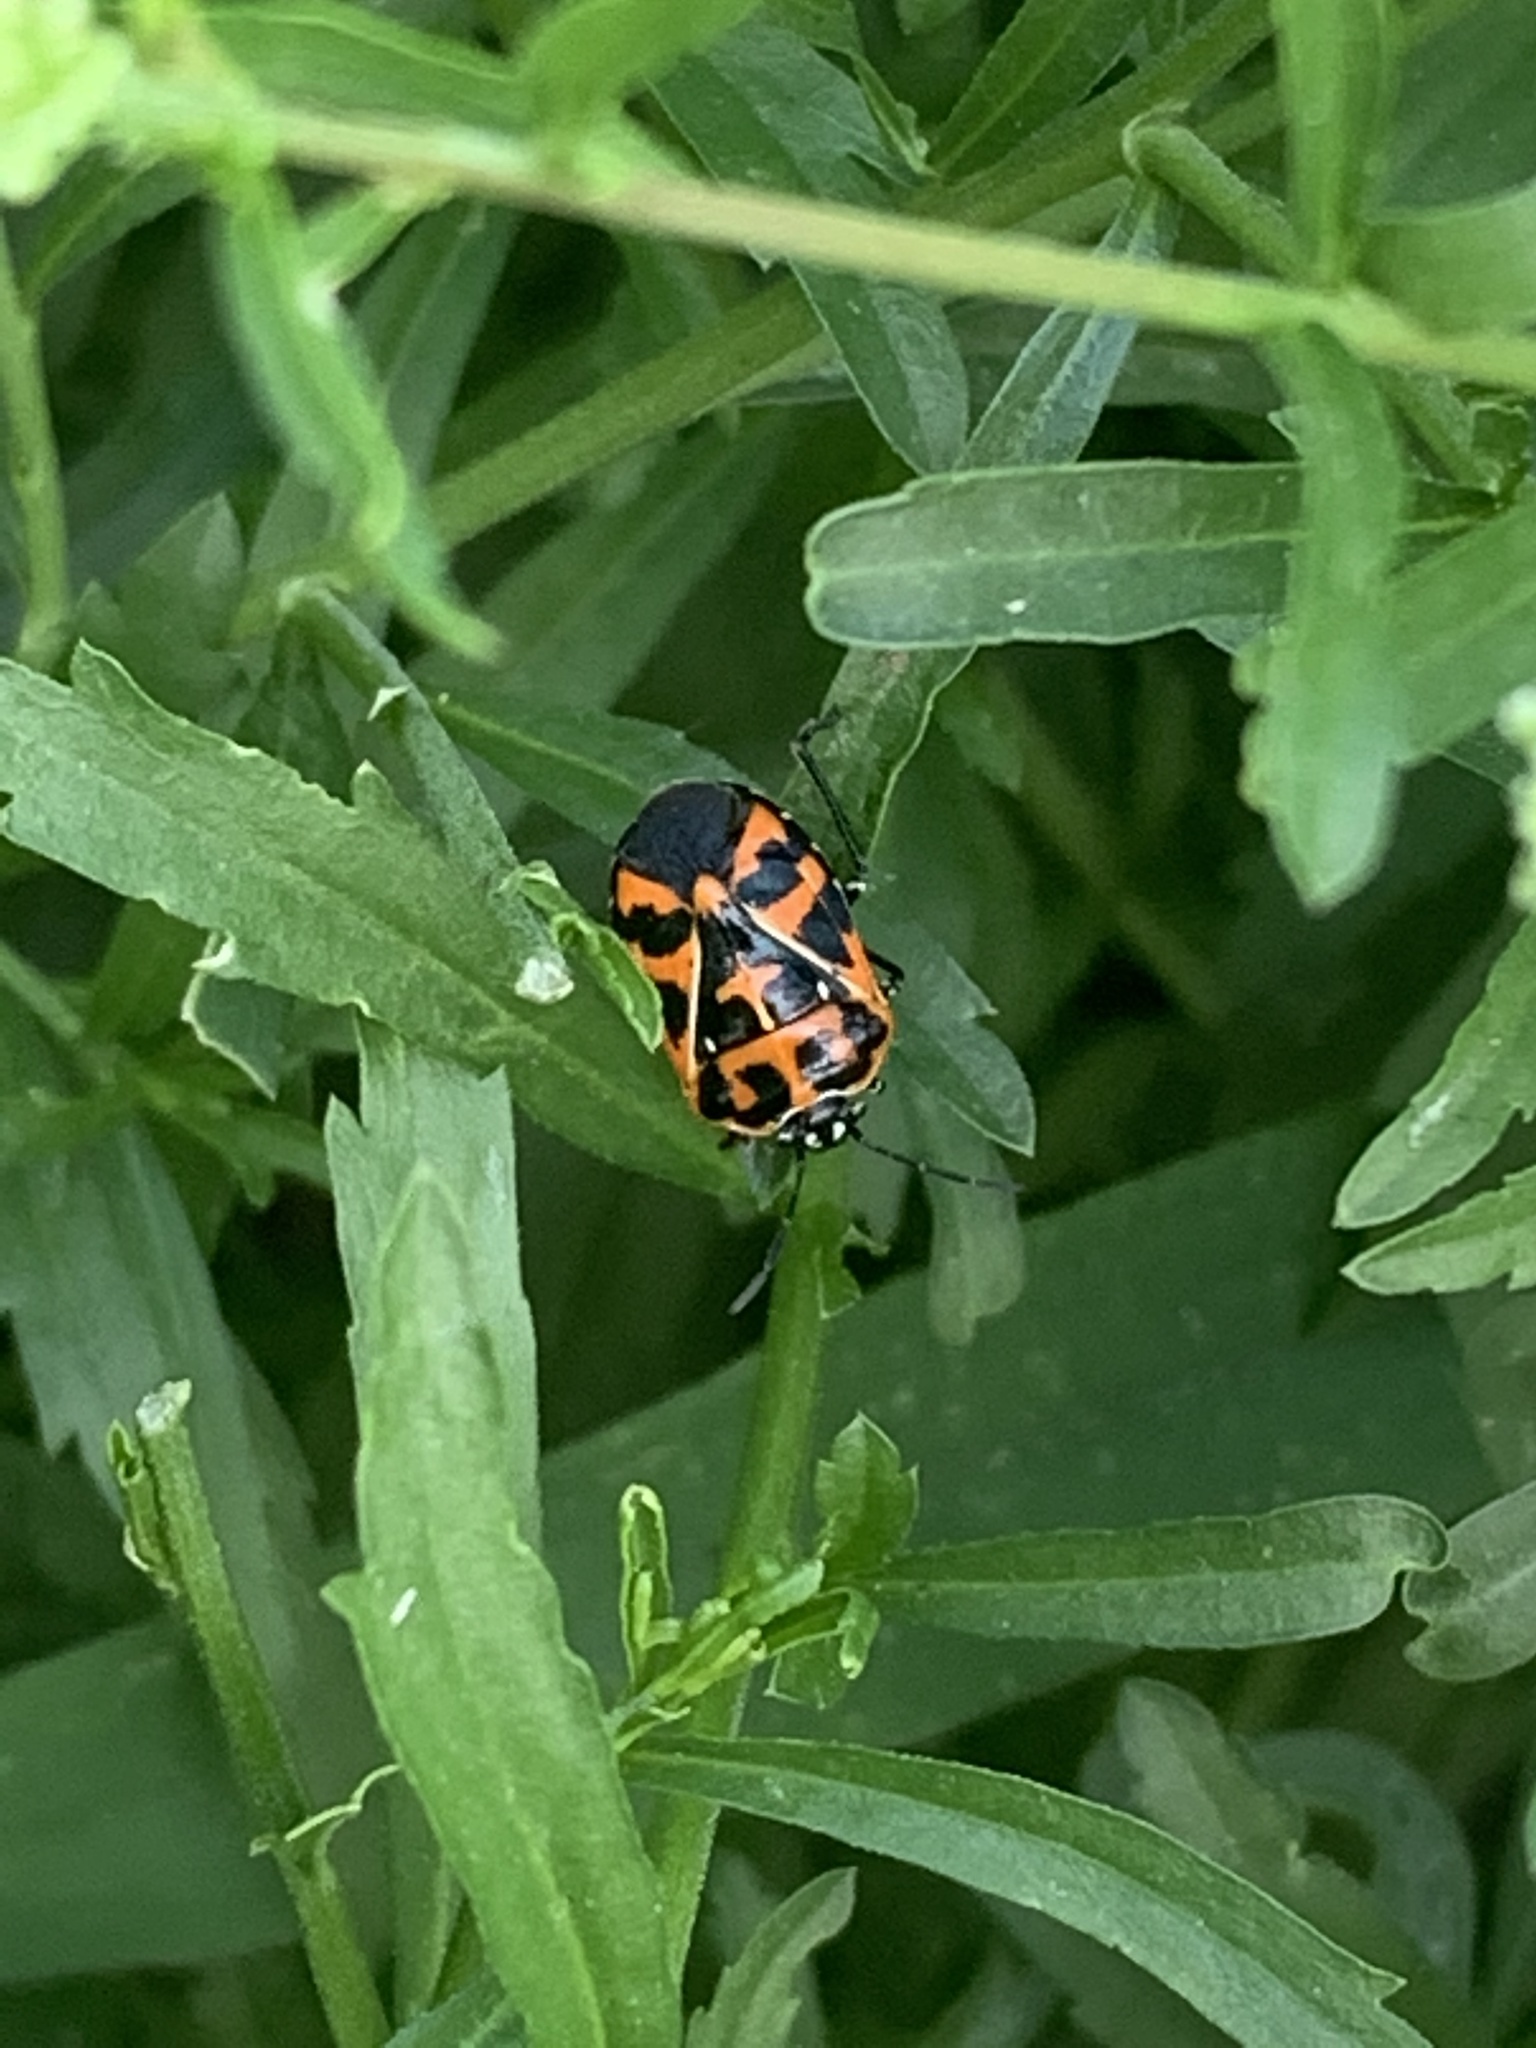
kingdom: Animalia
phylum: Arthropoda
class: Insecta
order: Hemiptera
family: Pentatomidae
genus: Murgantia
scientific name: Murgantia histrionica
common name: Harlequin bug
